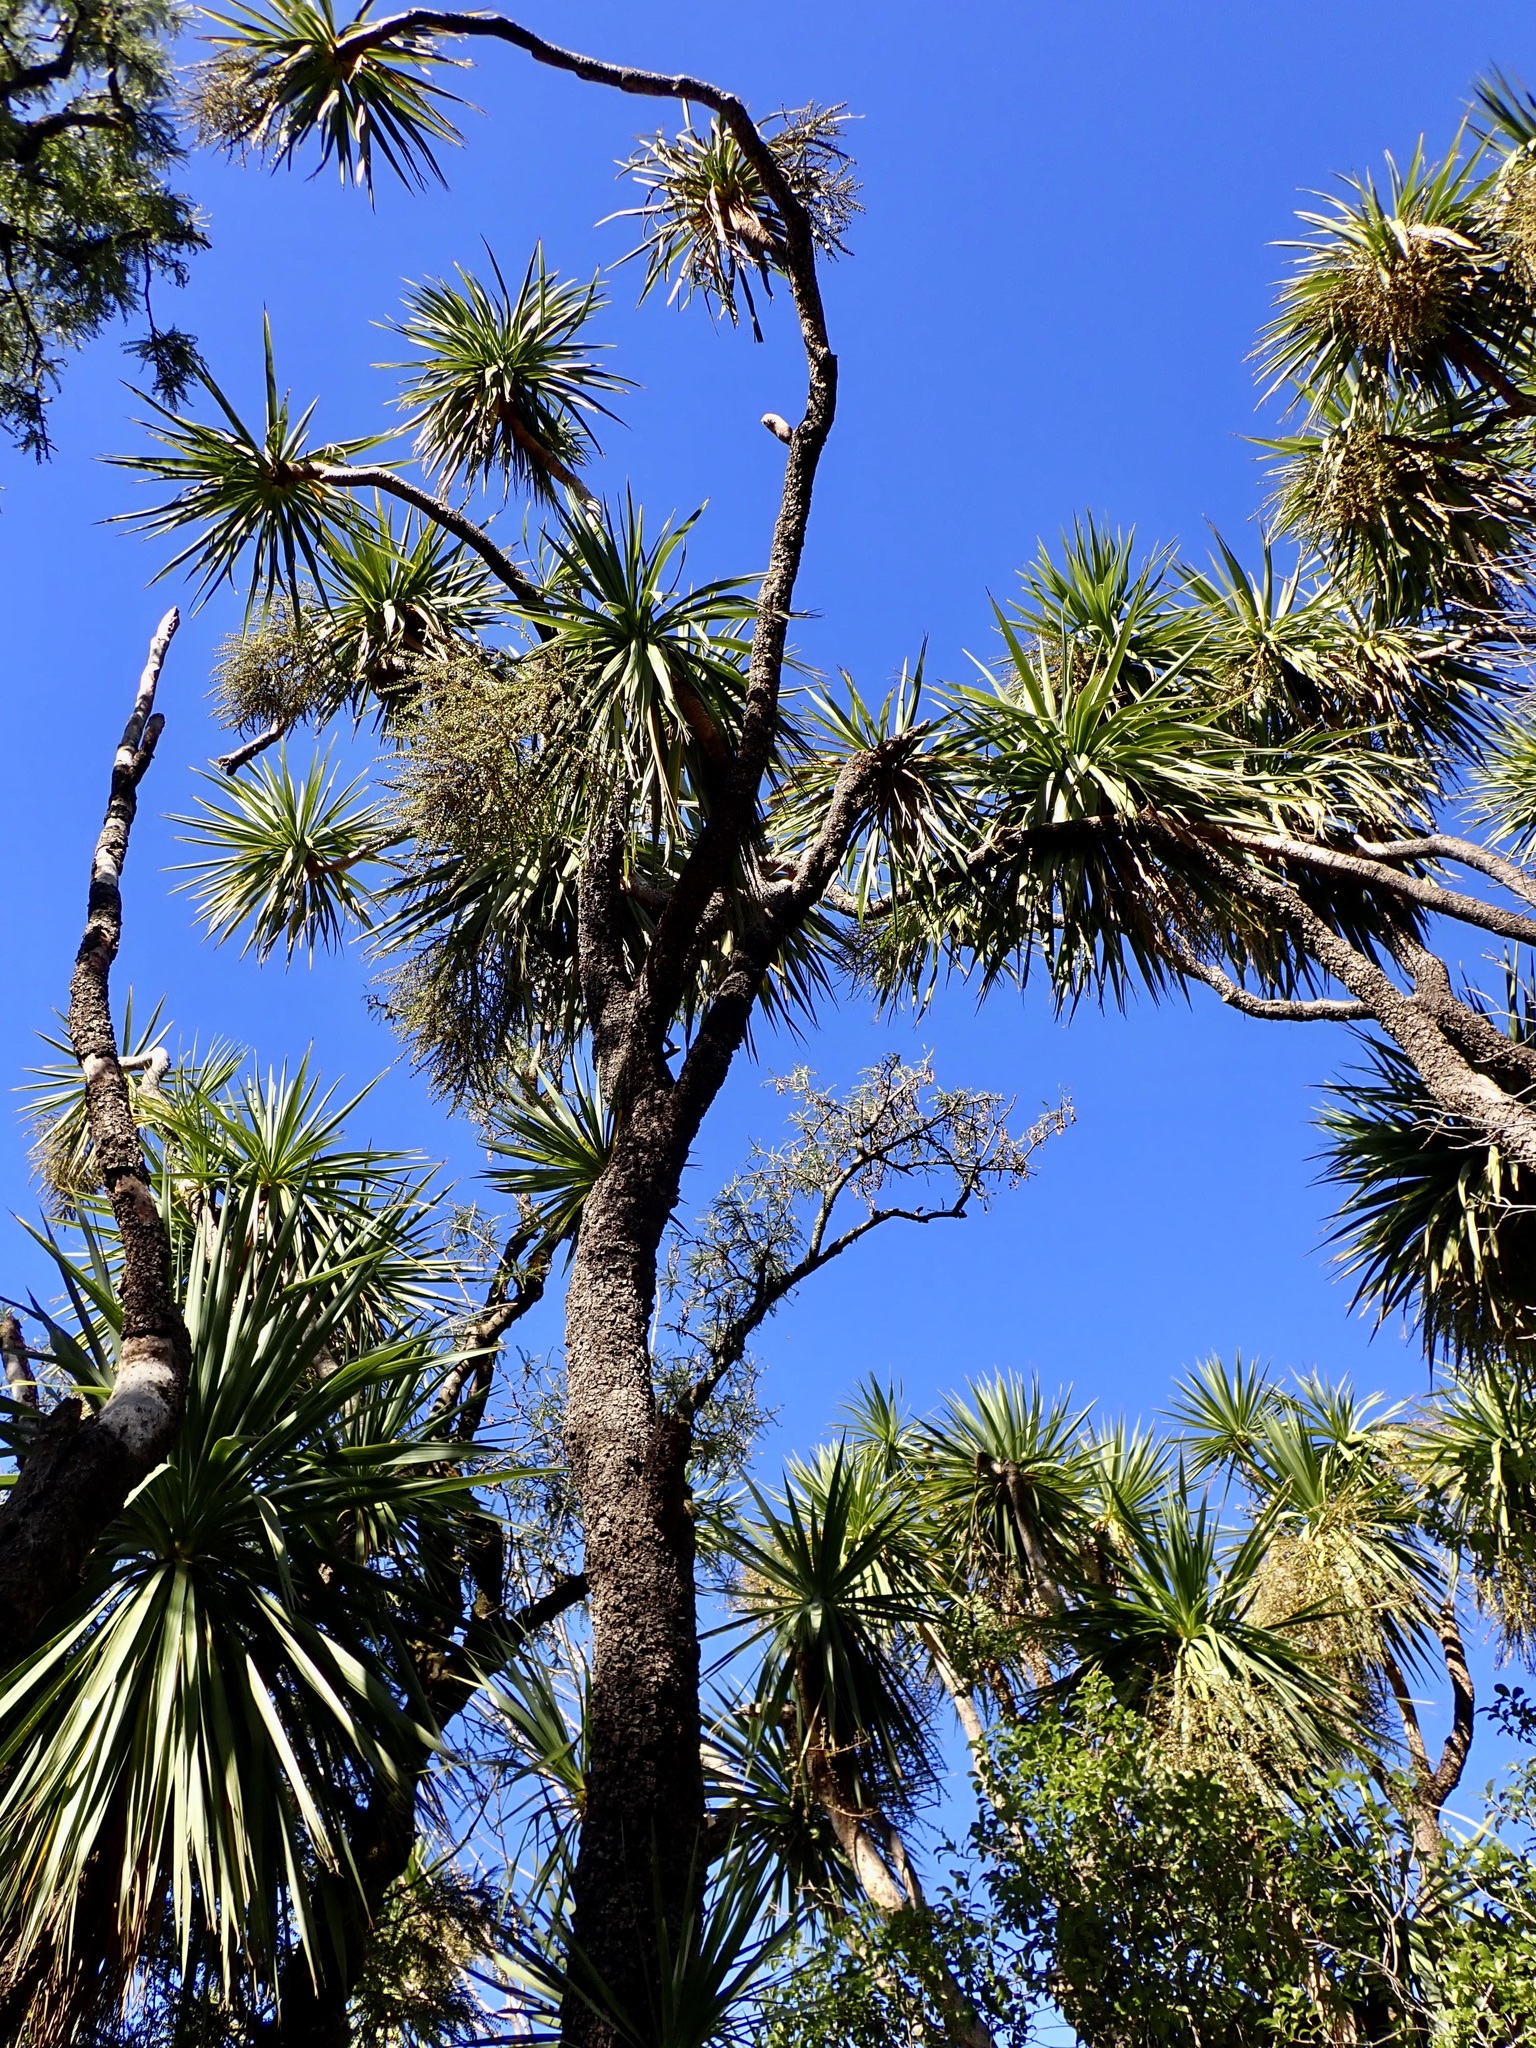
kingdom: Plantae
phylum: Tracheophyta
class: Liliopsida
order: Asparagales
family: Asparagaceae
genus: Cordyline
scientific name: Cordyline australis
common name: Cabbage-palm
